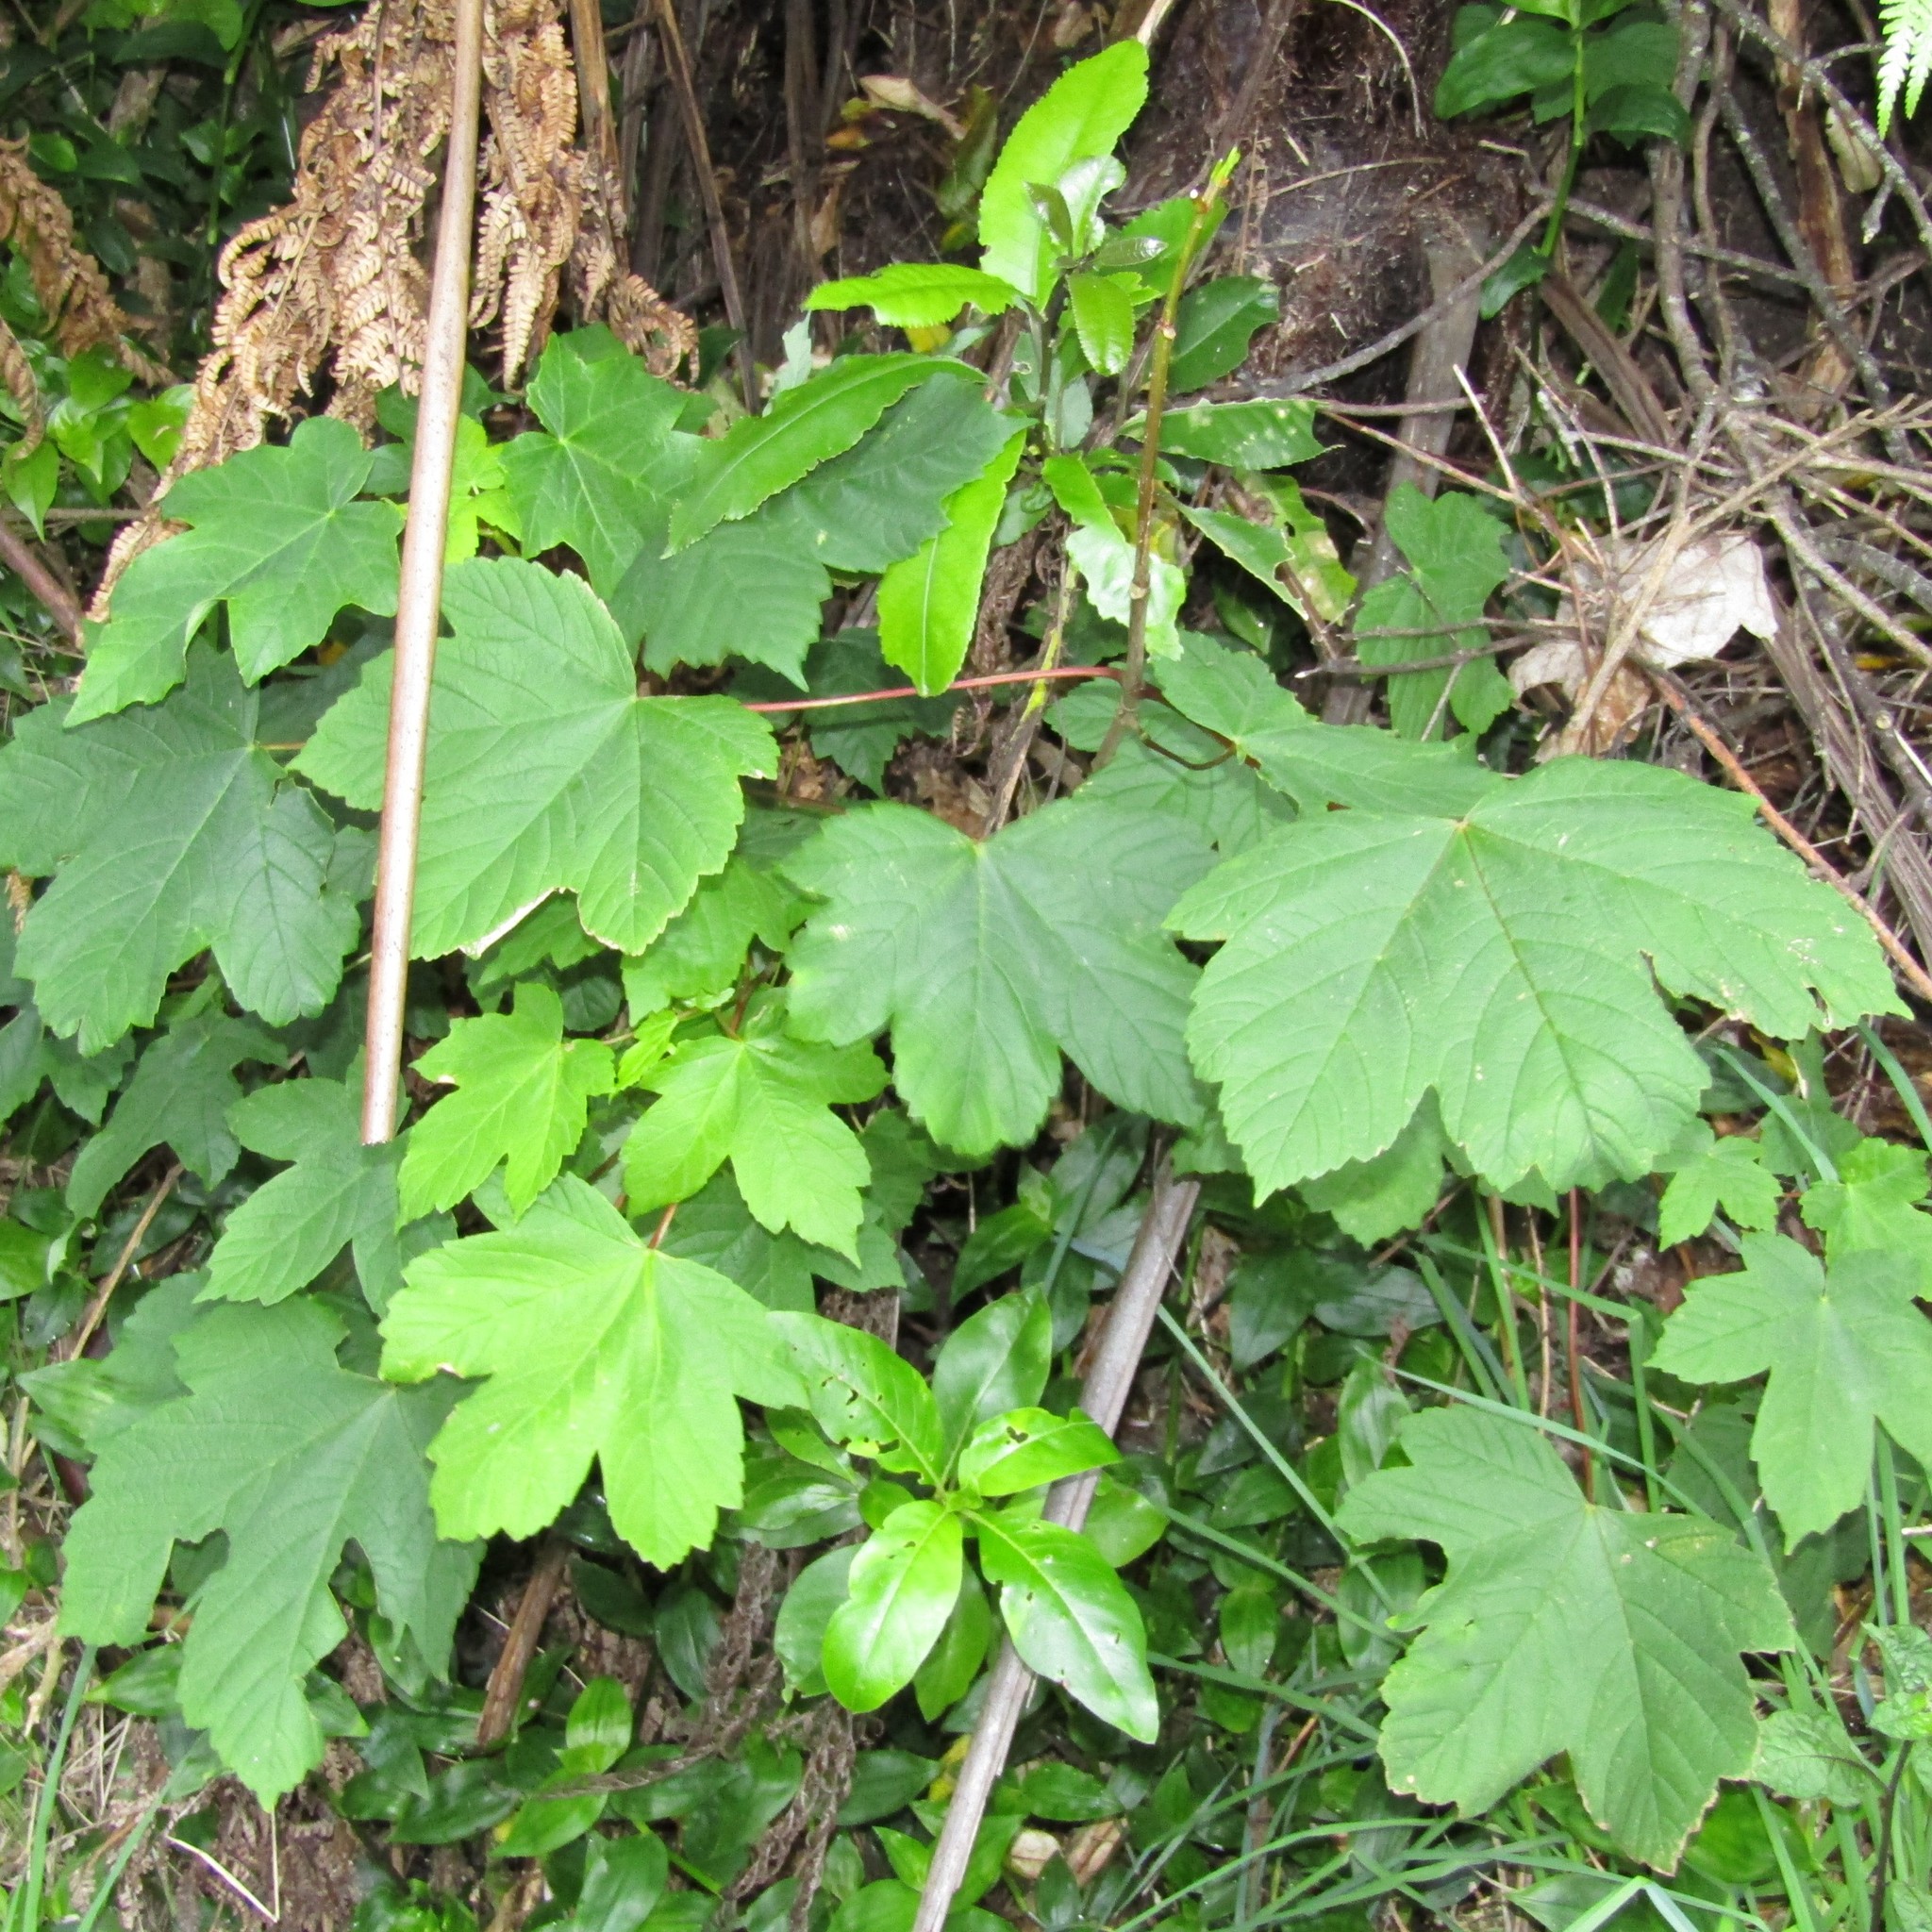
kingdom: Plantae
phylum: Tracheophyta
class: Magnoliopsida
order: Sapindales
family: Sapindaceae
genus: Acer
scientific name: Acer pseudoplatanus
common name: Sycamore
